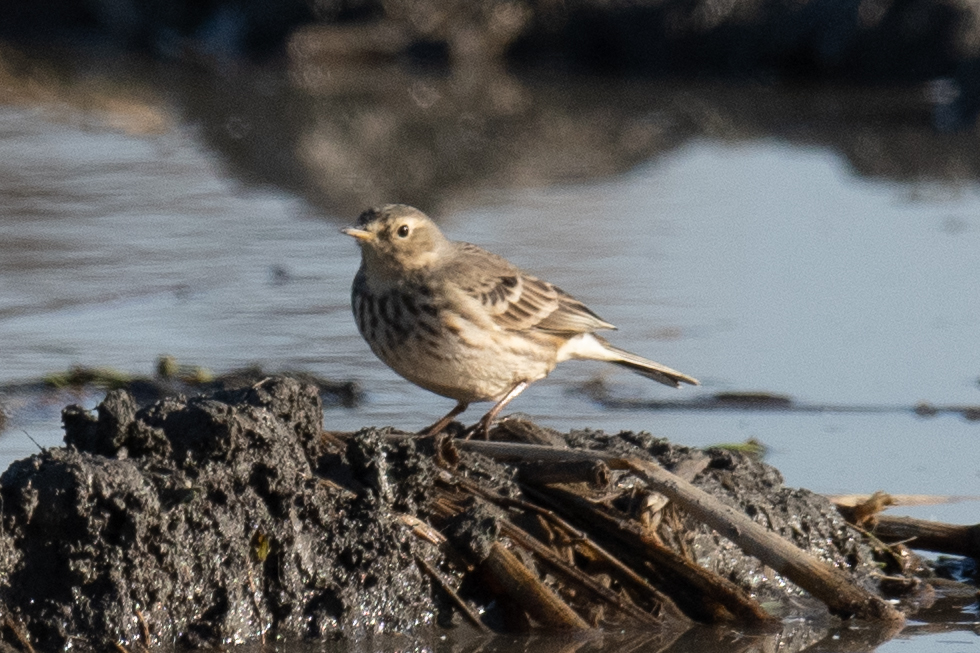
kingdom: Animalia
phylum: Chordata
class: Aves
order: Passeriformes
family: Motacillidae
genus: Anthus
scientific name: Anthus rubescens
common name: Buff-bellied pipit
